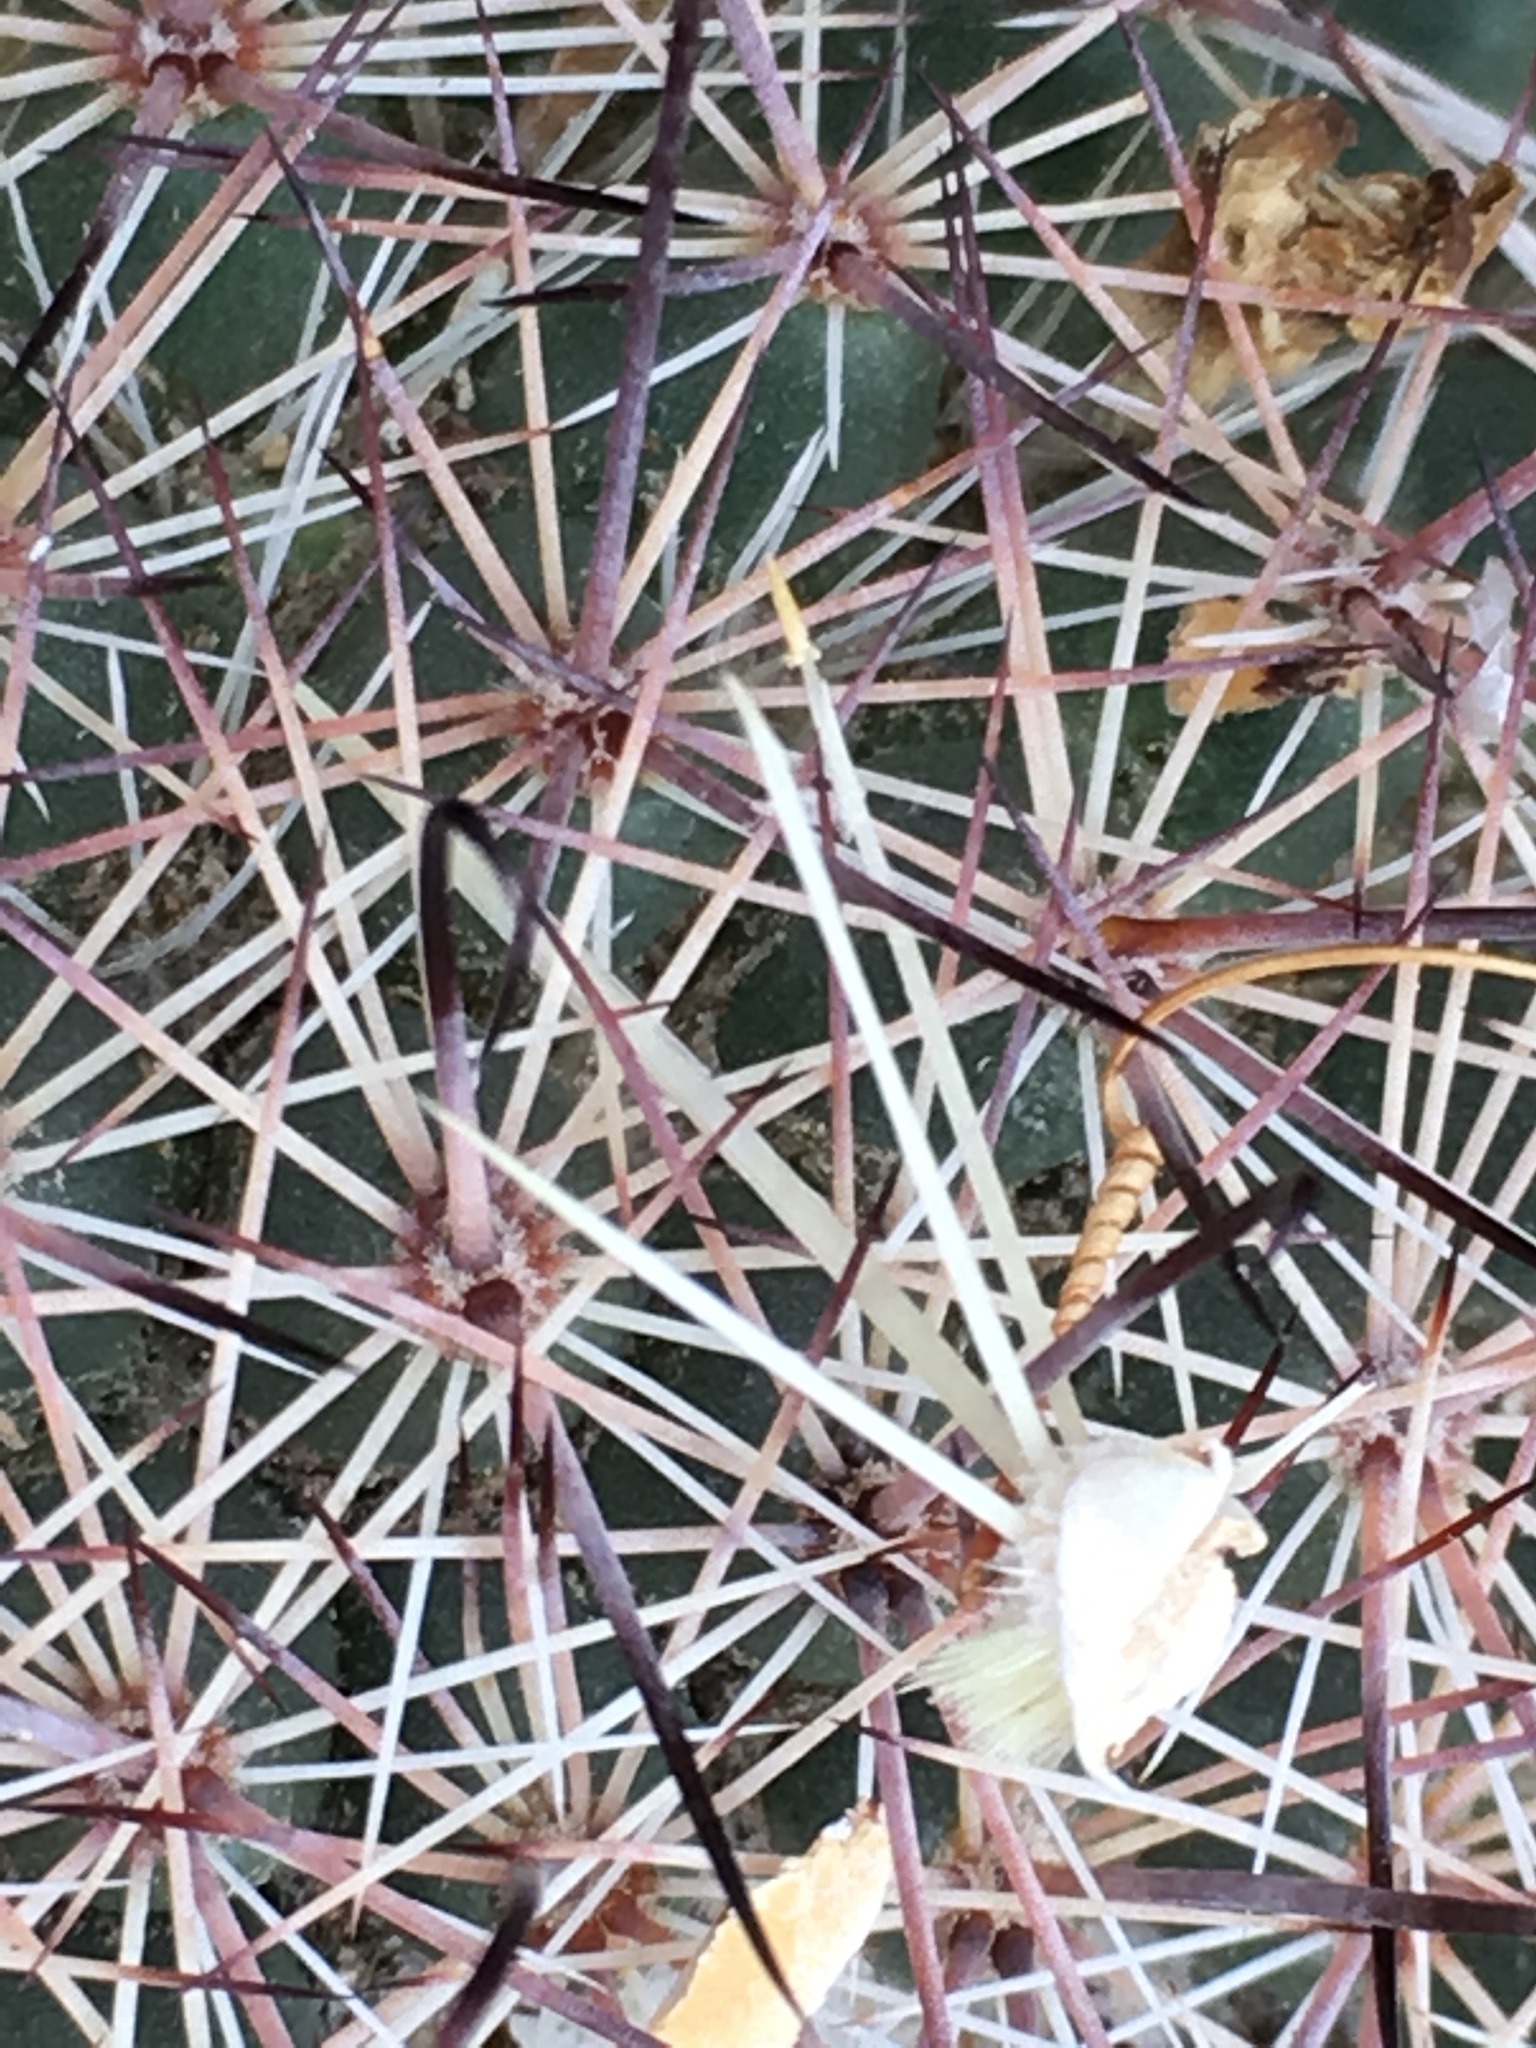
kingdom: Plantae
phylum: Tracheophyta
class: Magnoliopsida
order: Caryophyllales
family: Cactaceae
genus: Cochemiea
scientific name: Cochemiea dioica
